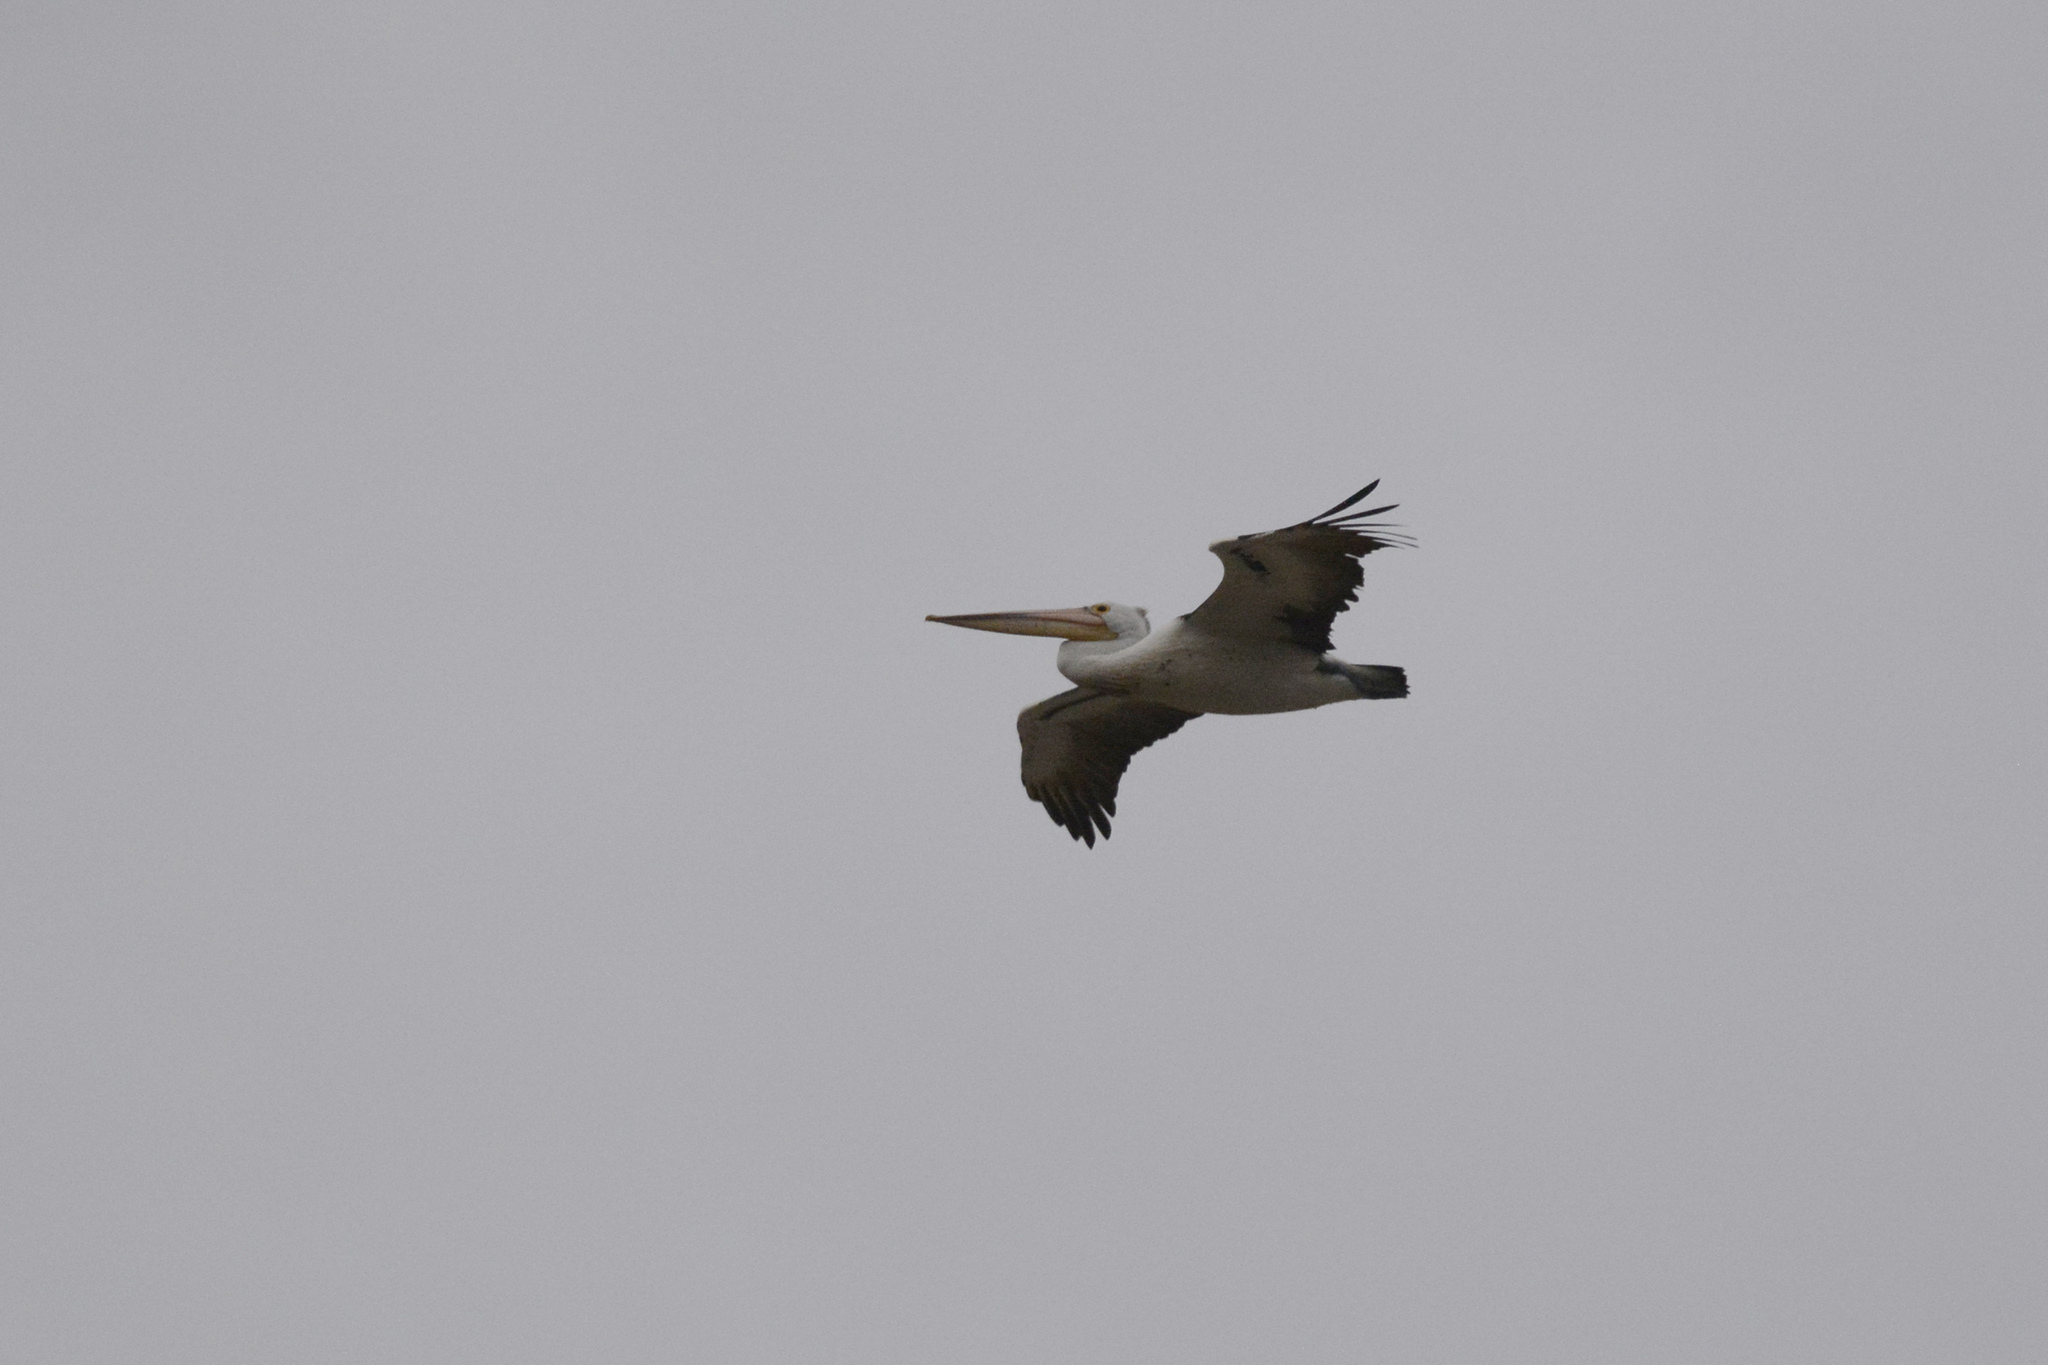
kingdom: Animalia
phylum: Chordata
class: Aves
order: Pelecaniformes
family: Pelecanidae
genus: Pelecanus
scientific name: Pelecanus conspicillatus
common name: Australian pelican
